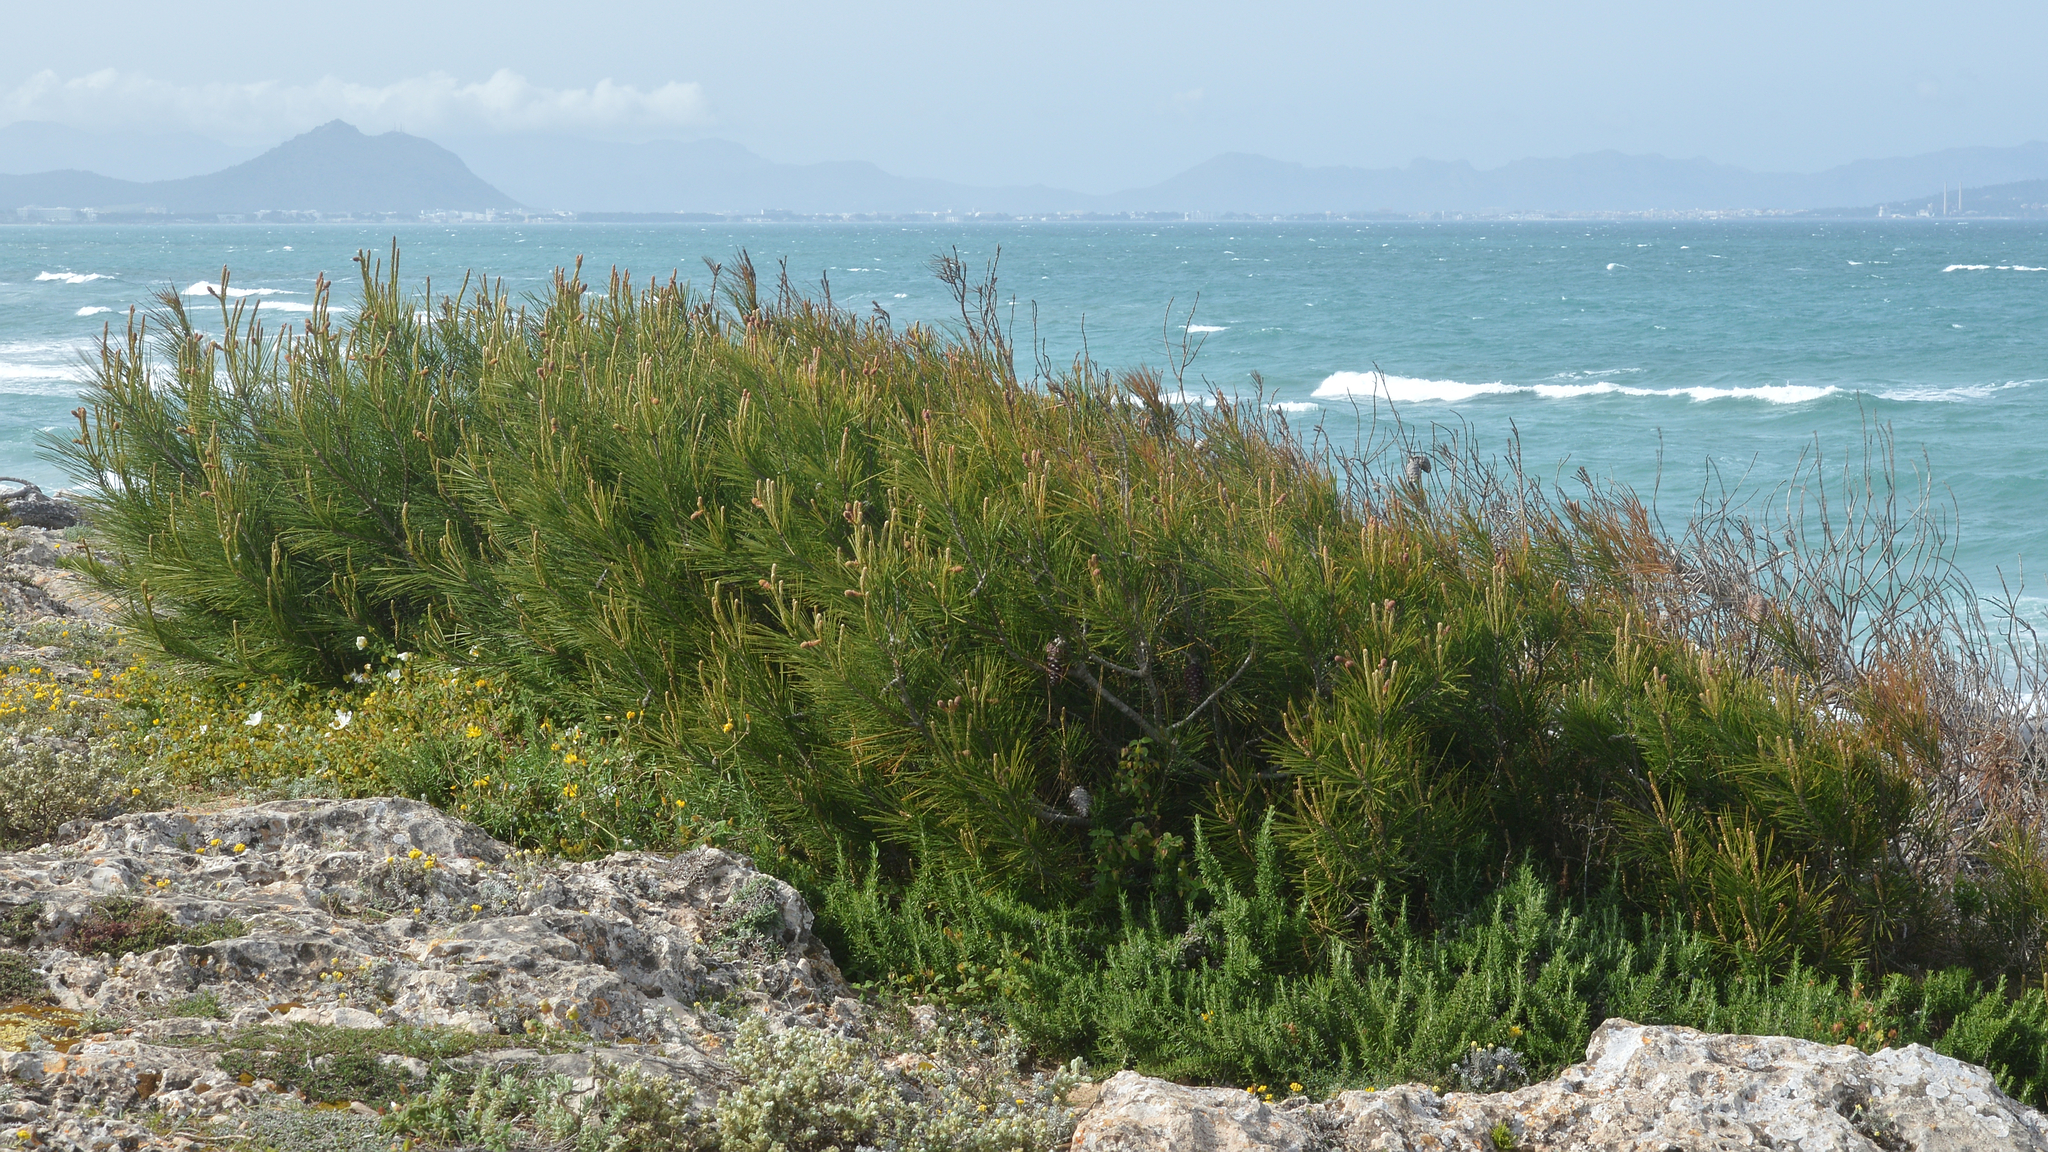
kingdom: Plantae
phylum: Tracheophyta
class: Pinopsida
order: Pinales
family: Pinaceae
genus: Pinus
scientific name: Pinus halepensis
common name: Aleppo pine
